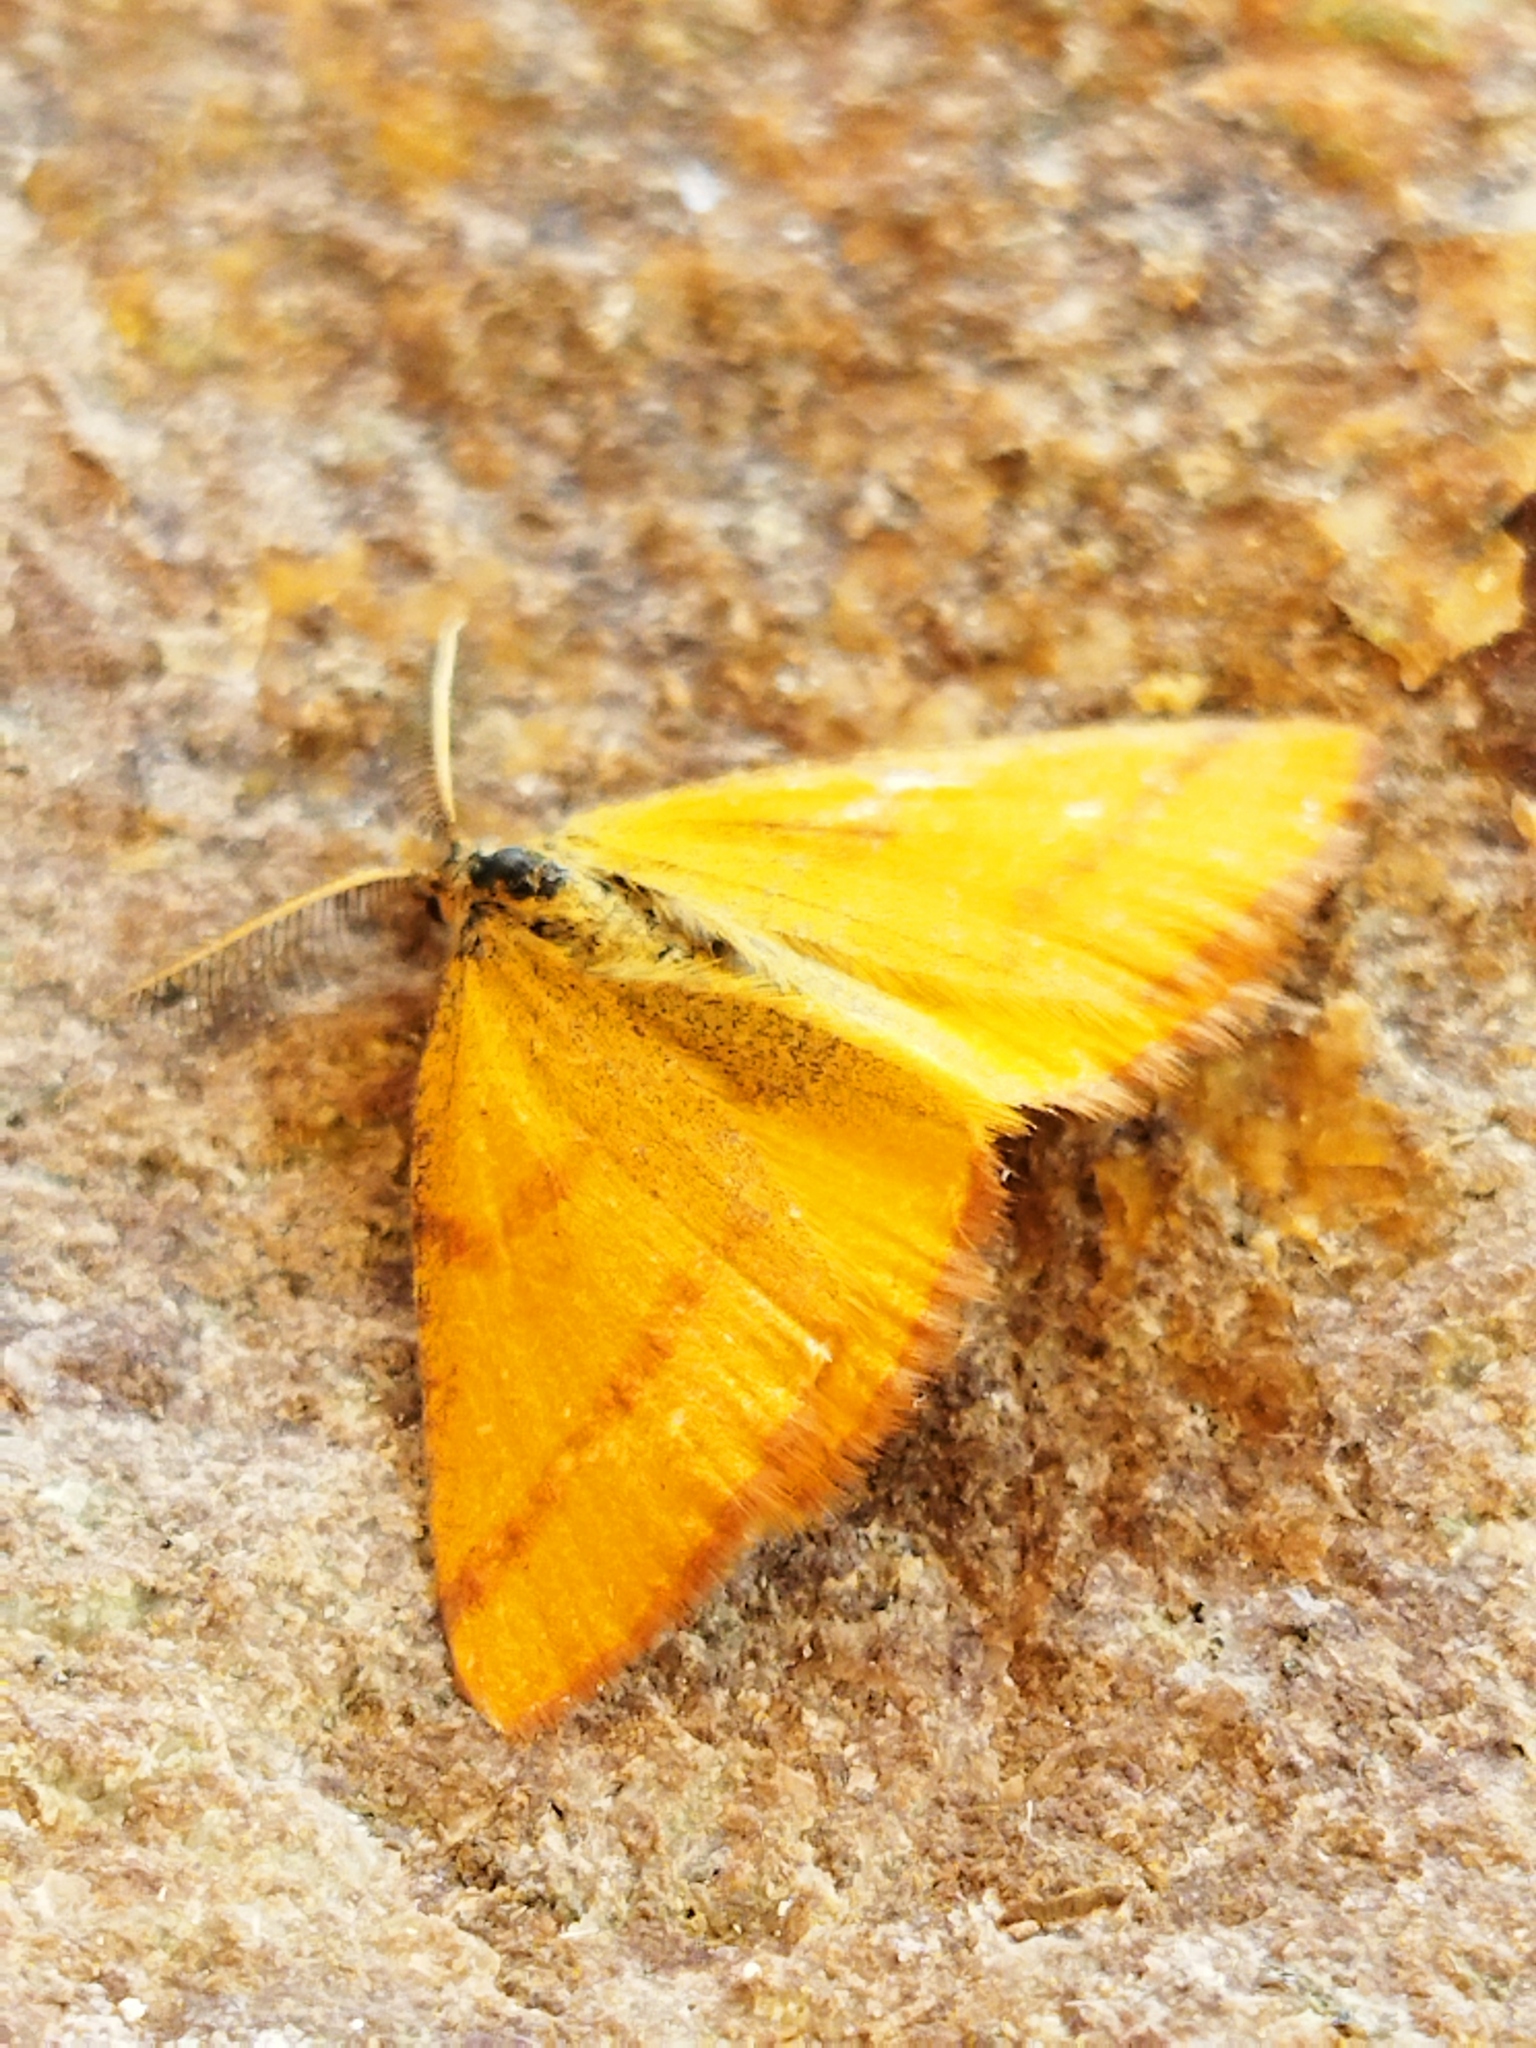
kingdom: Animalia
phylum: Arthropoda
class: Insecta
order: Lepidoptera
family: Geometridae
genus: Lythria
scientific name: Lythria purpuraria
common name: Purple-barred yellow
